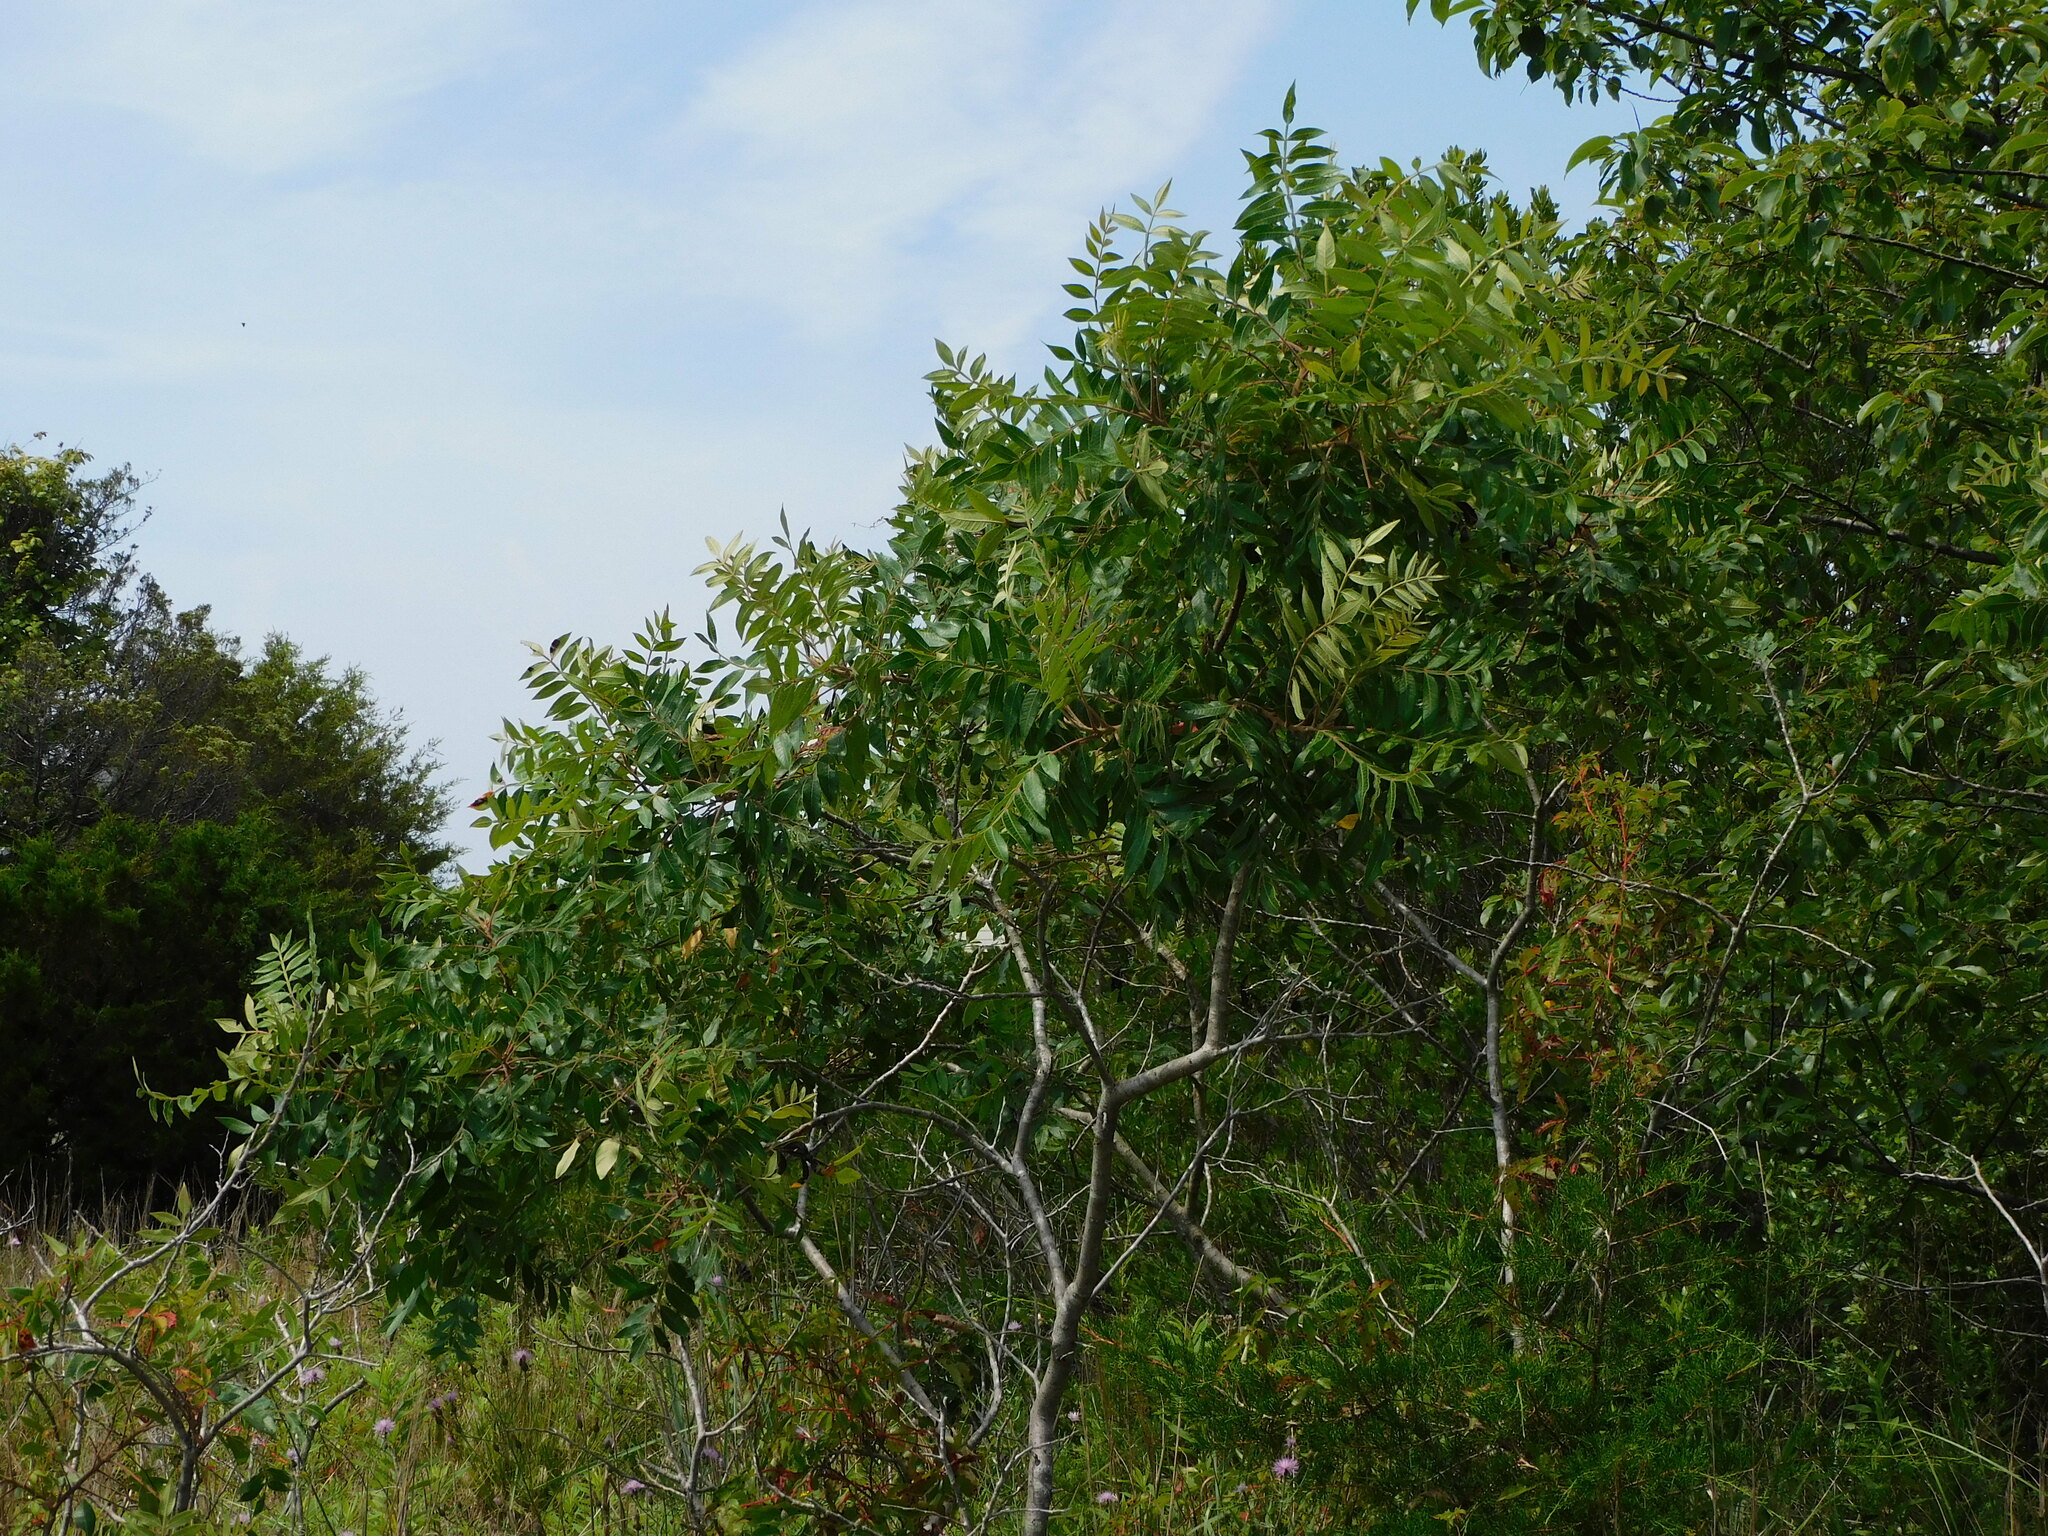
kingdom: Plantae
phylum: Tracheophyta
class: Magnoliopsida
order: Sapindales
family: Anacardiaceae
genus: Rhus
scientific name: Rhus copallina
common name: Shining sumac
